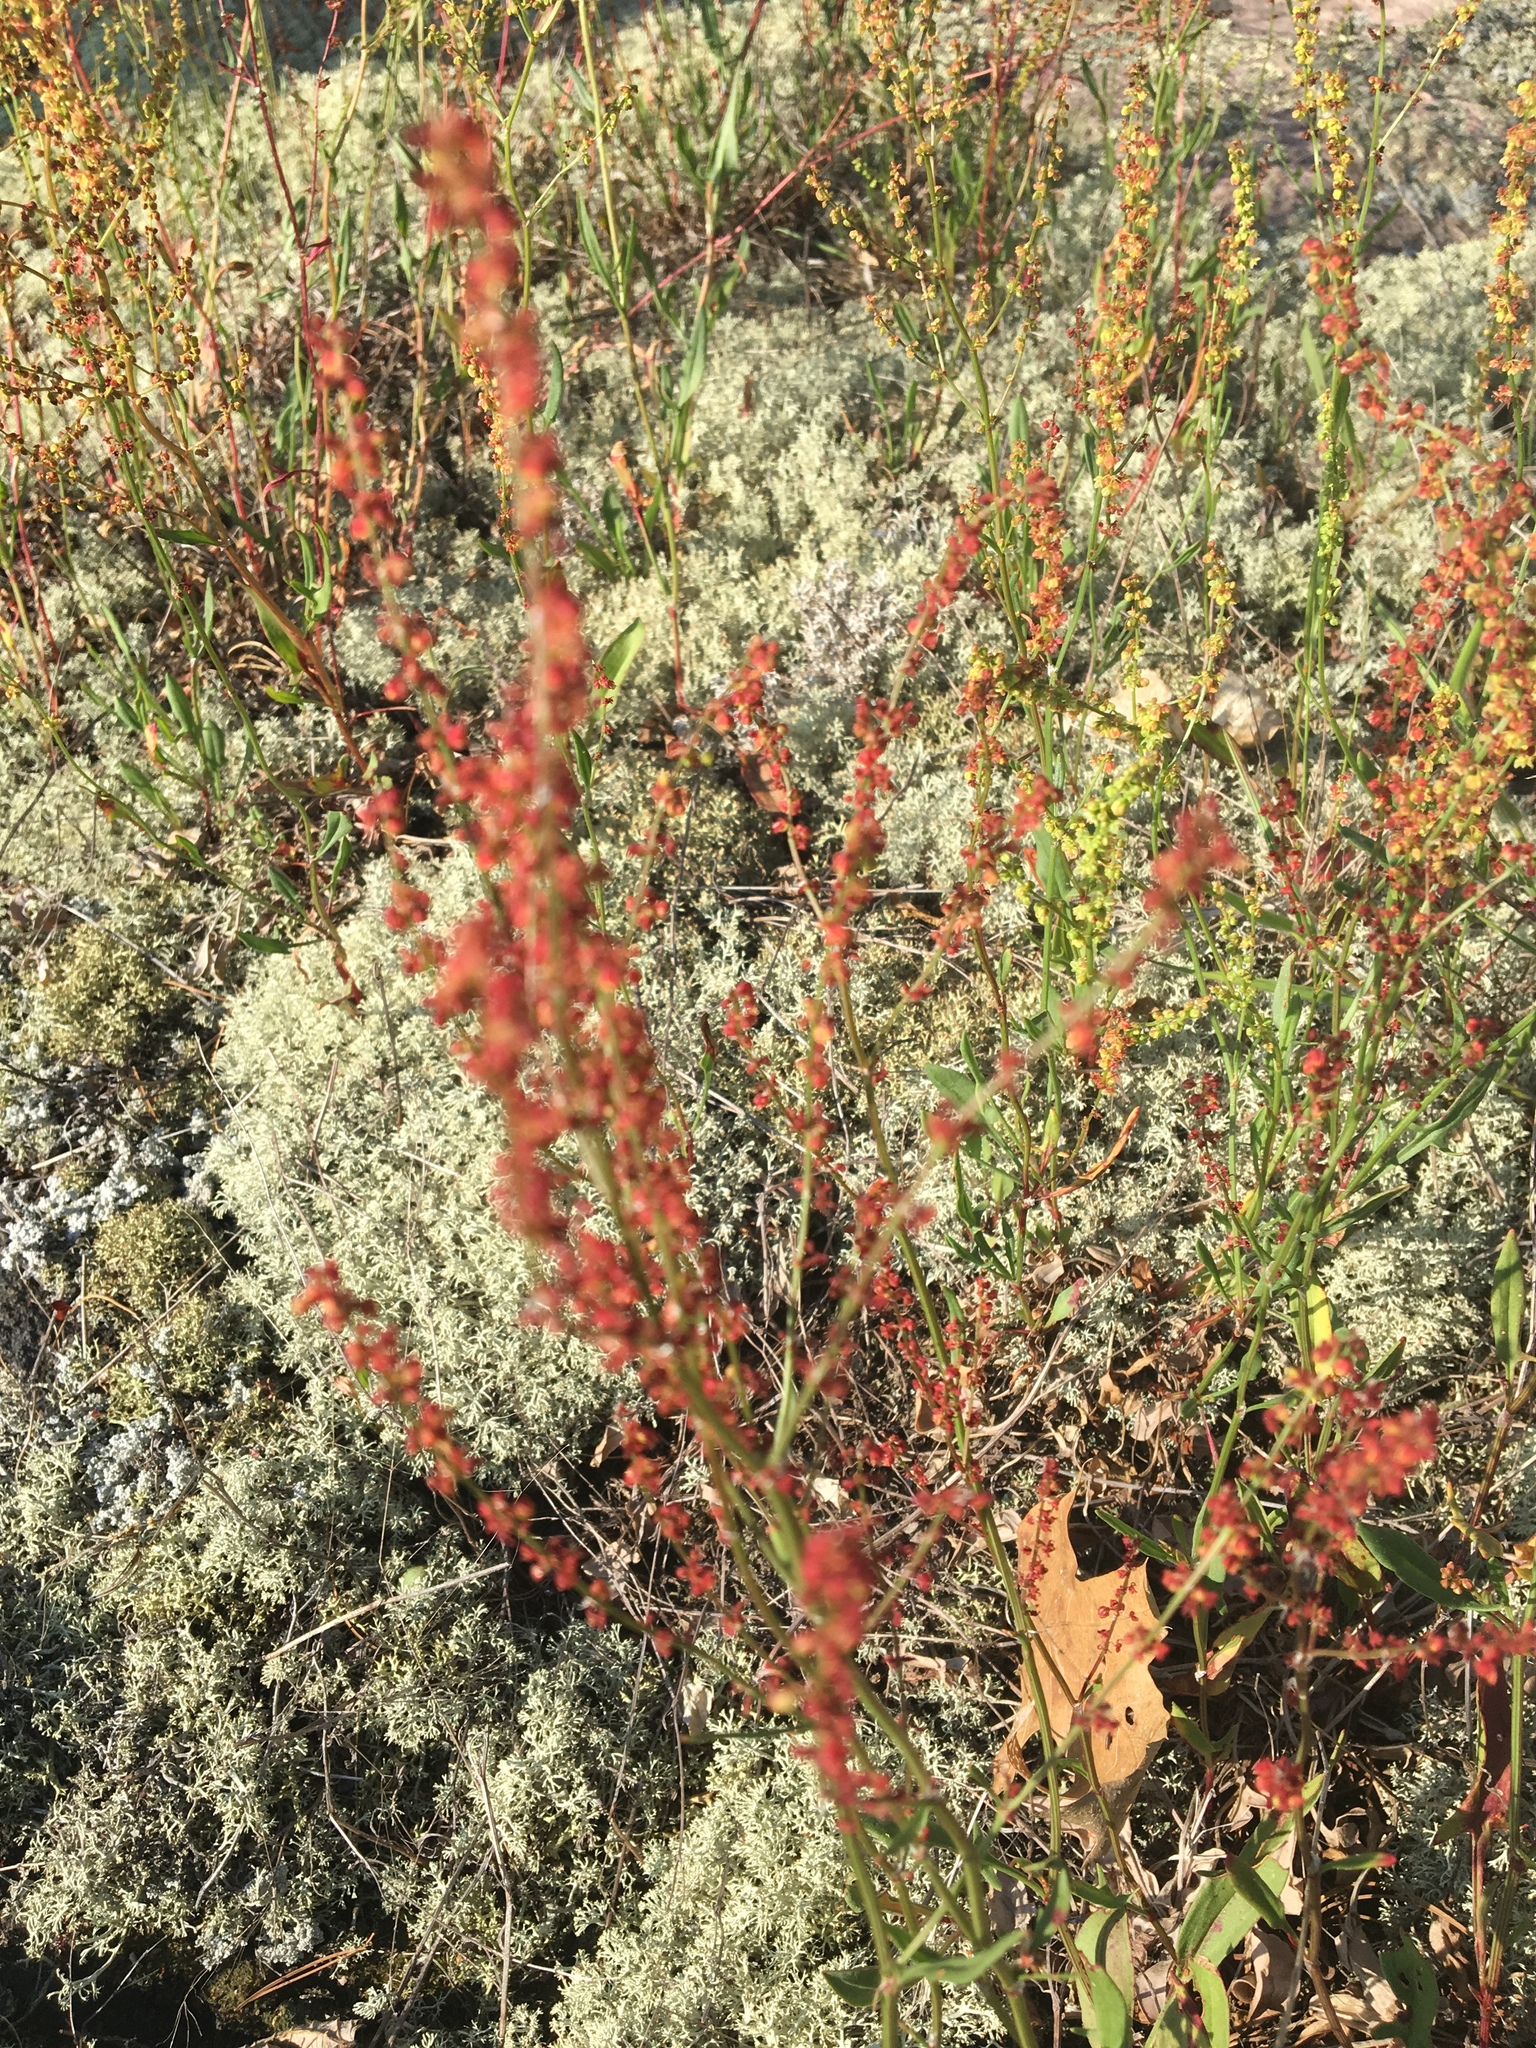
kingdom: Plantae
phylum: Tracheophyta
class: Magnoliopsida
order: Caryophyllales
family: Polygonaceae
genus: Rumex
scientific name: Rumex acetosella
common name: Common sheep sorrel
